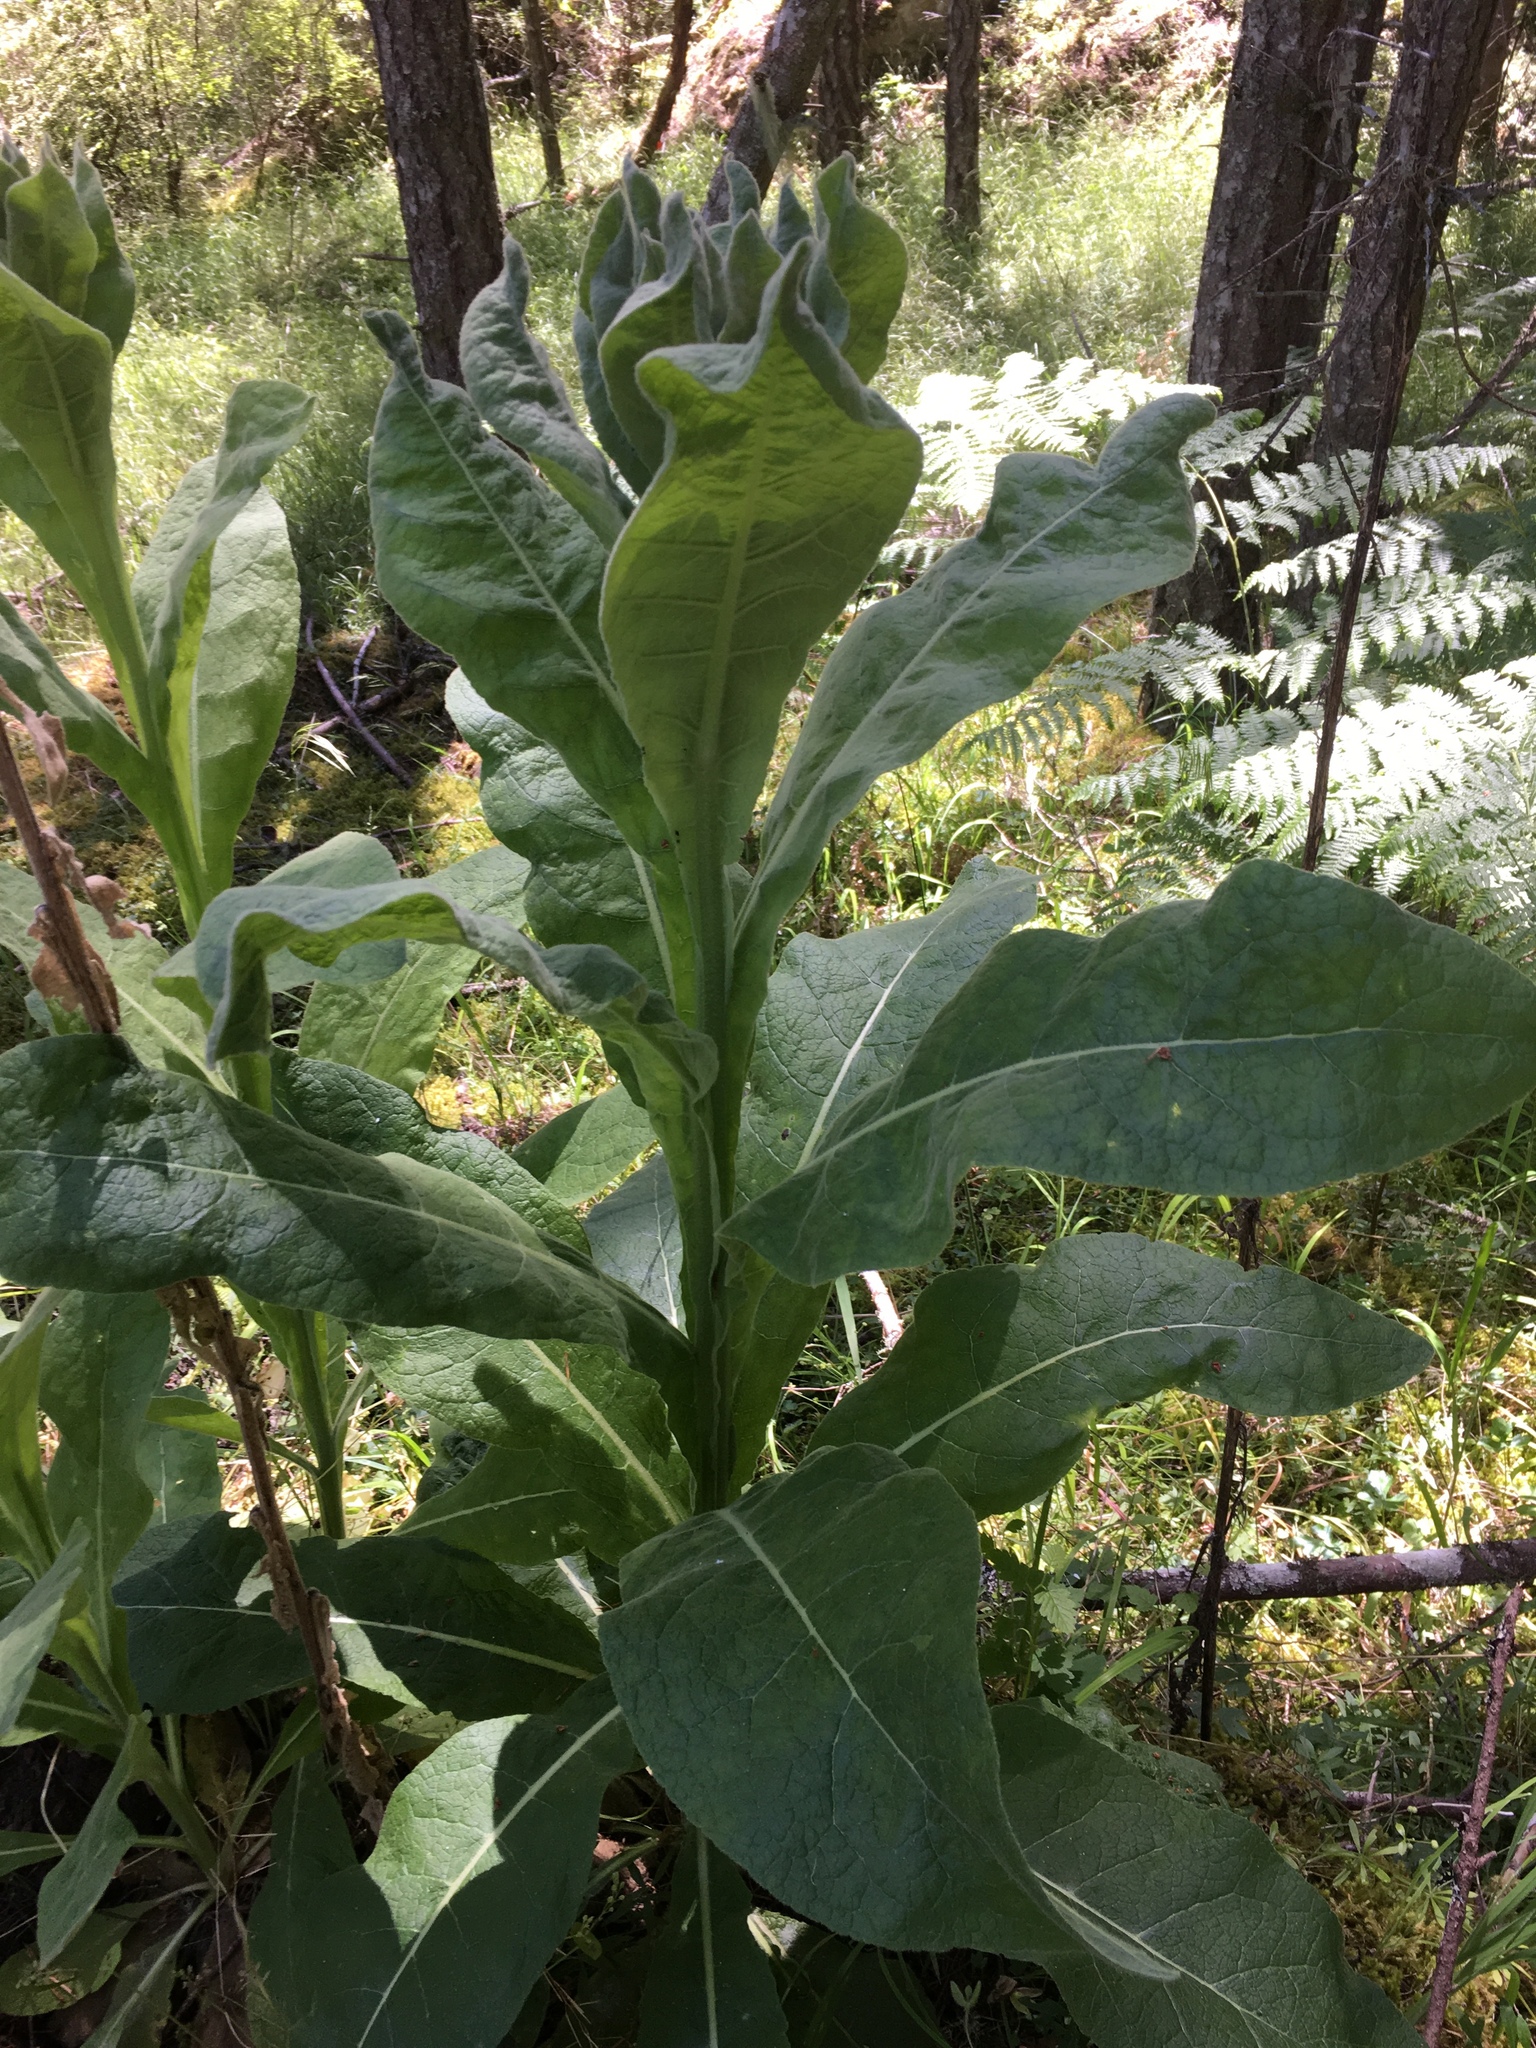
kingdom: Plantae
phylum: Tracheophyta
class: Magnoliopsida
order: Lamiales
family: Scrophulariaceae
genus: Verbascum
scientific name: Verbascum thapsus
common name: Common mullein
